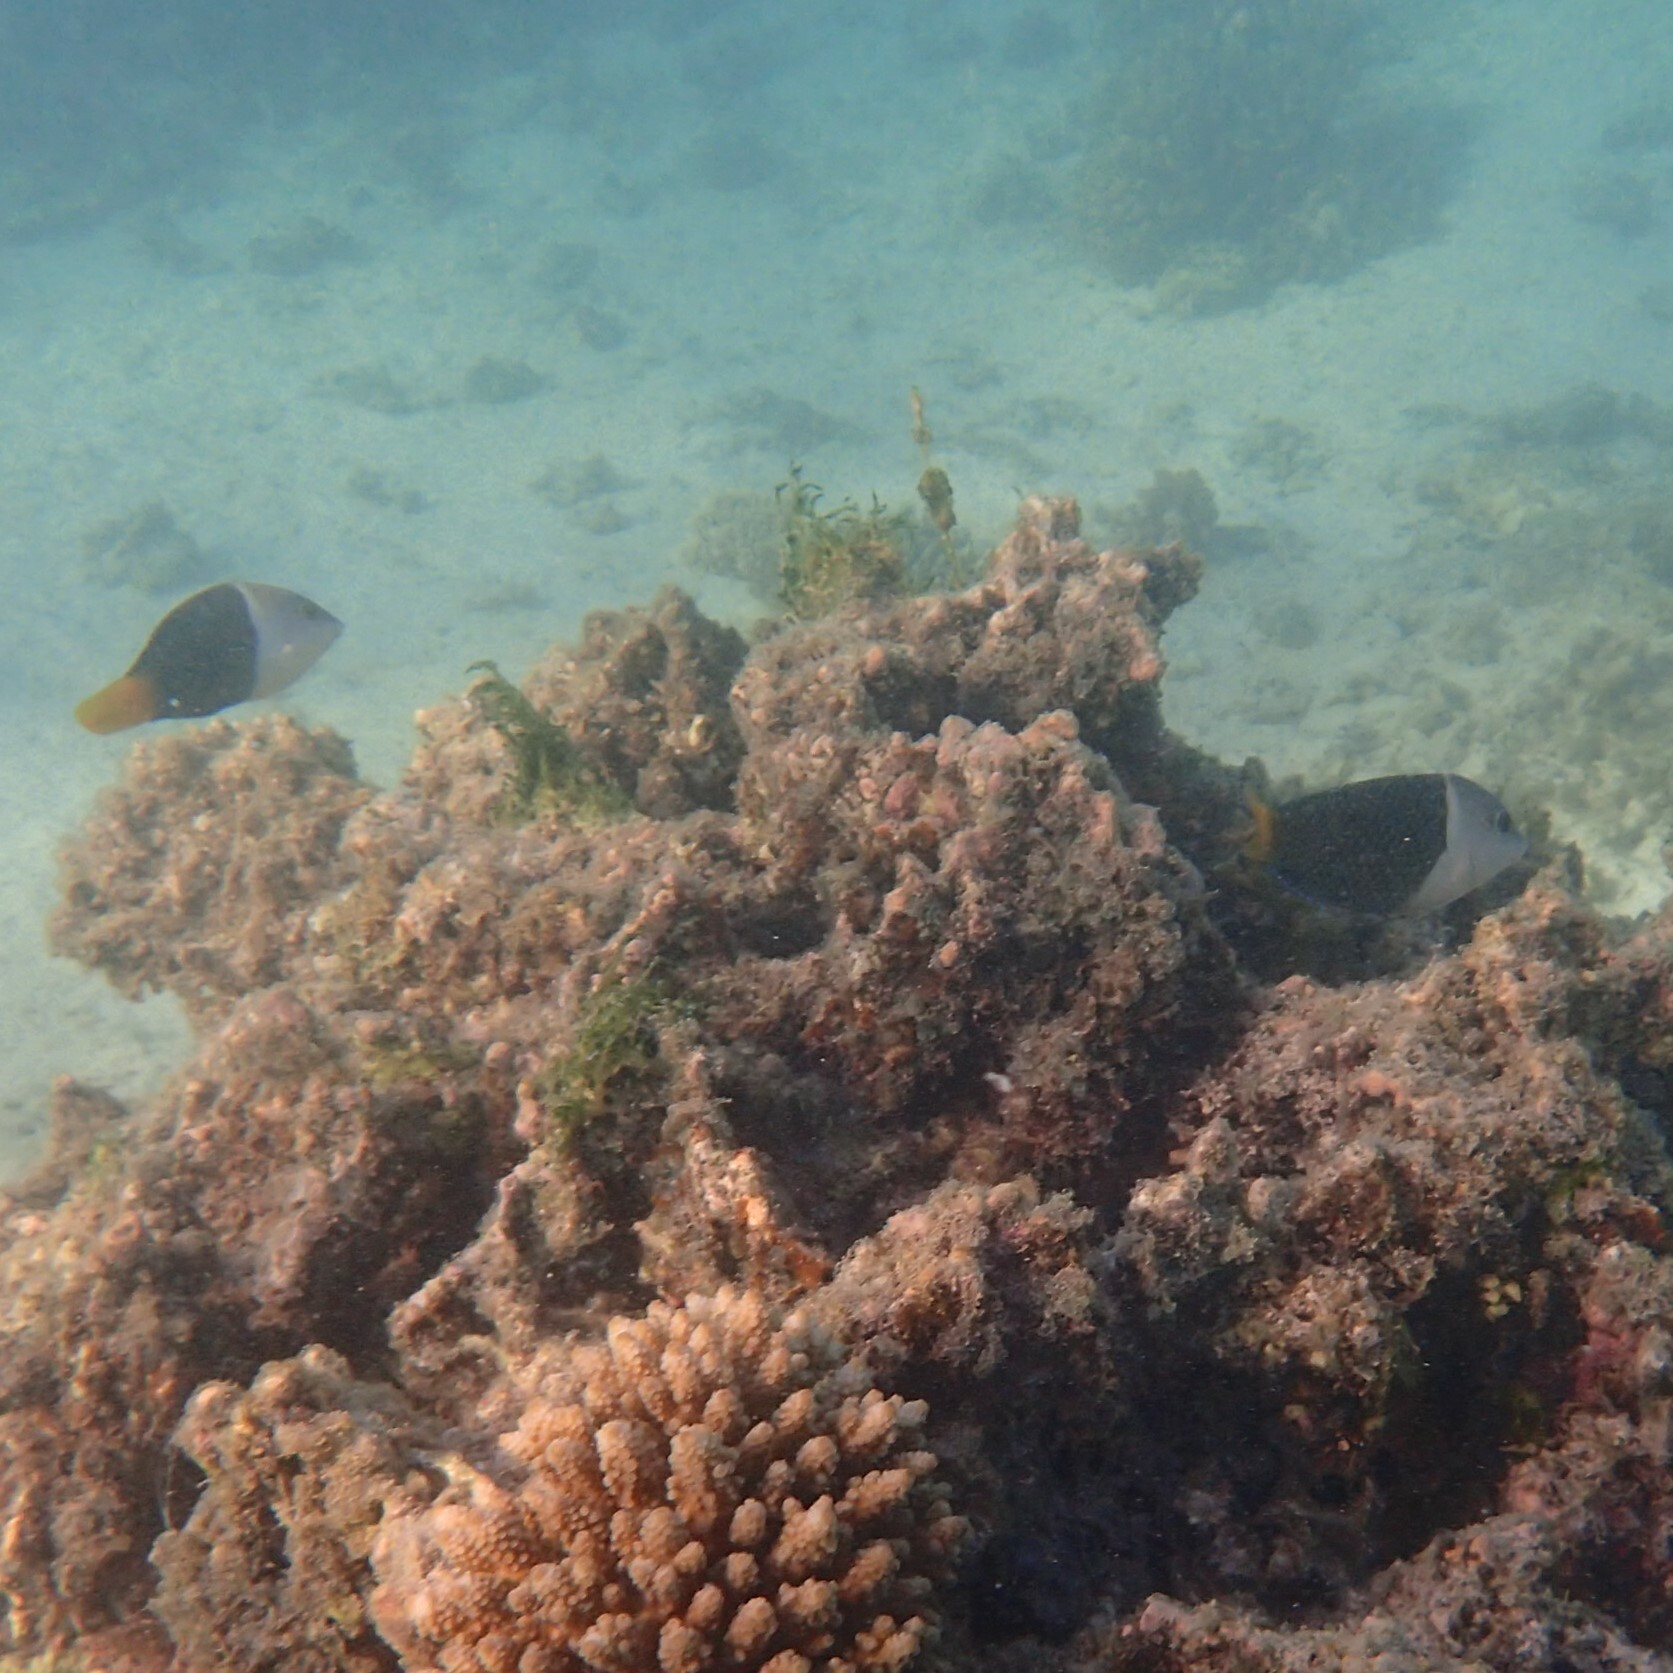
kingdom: Animalia
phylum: Chordata
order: Perciformes
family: Labridae
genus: Hemigymnus
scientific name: Hemigymnus melapterus
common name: Blackeye thicklip
